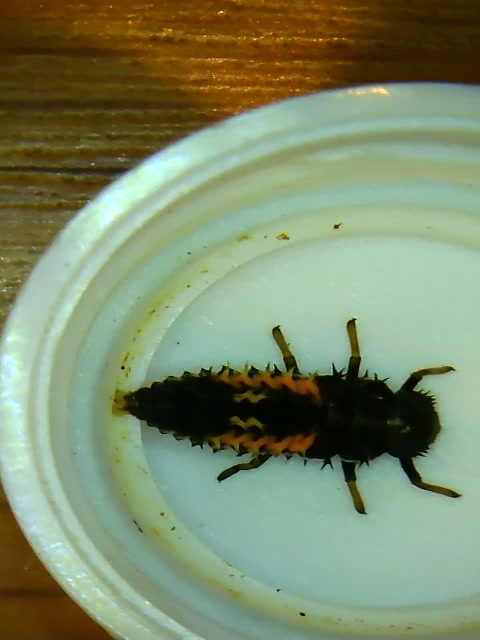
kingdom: Animalia
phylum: Arthropoda
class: Insecta
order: Coleoptera
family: Coccinellidae
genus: Harmonia
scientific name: Harmonia axyridis
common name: Harlequin ladybird
